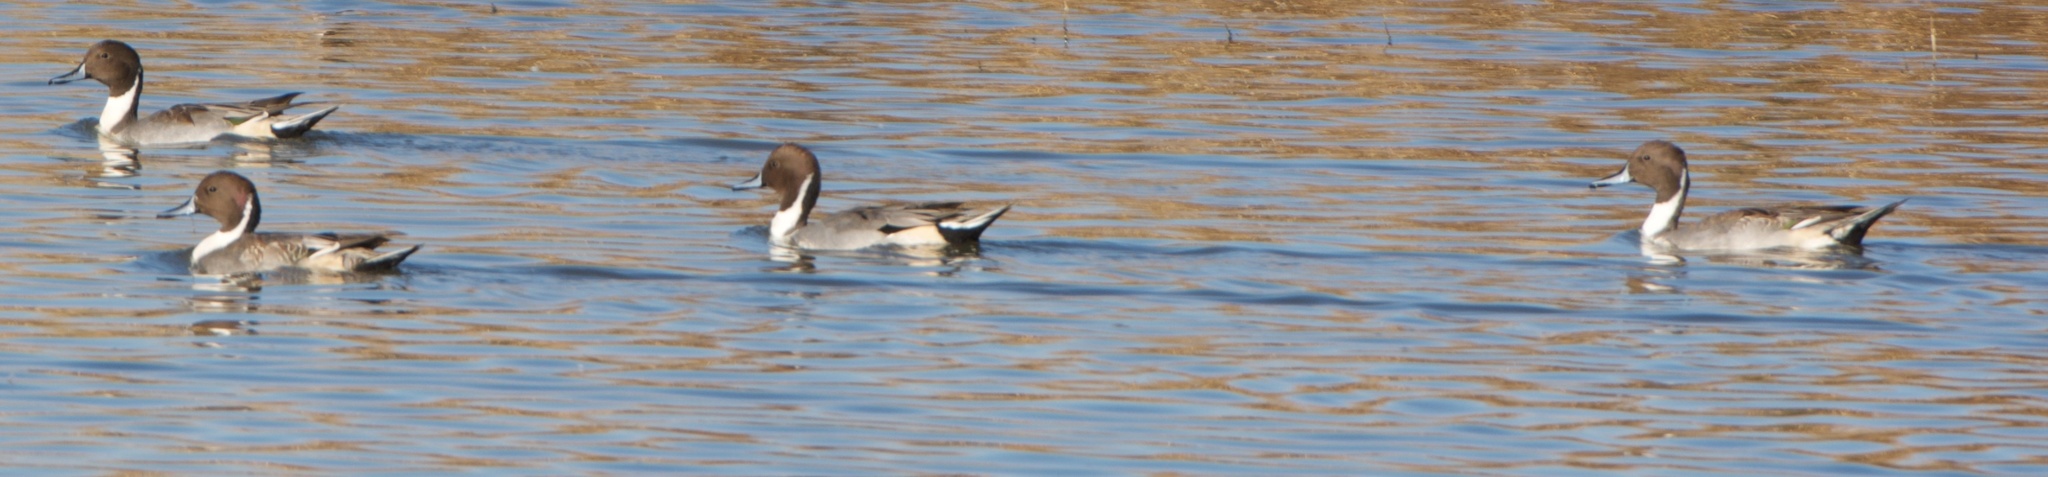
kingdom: Animalia
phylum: Chordata
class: Aves
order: Anseriformes
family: Anatidae
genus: Anas
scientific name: Anas acuta
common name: Northern pintail
